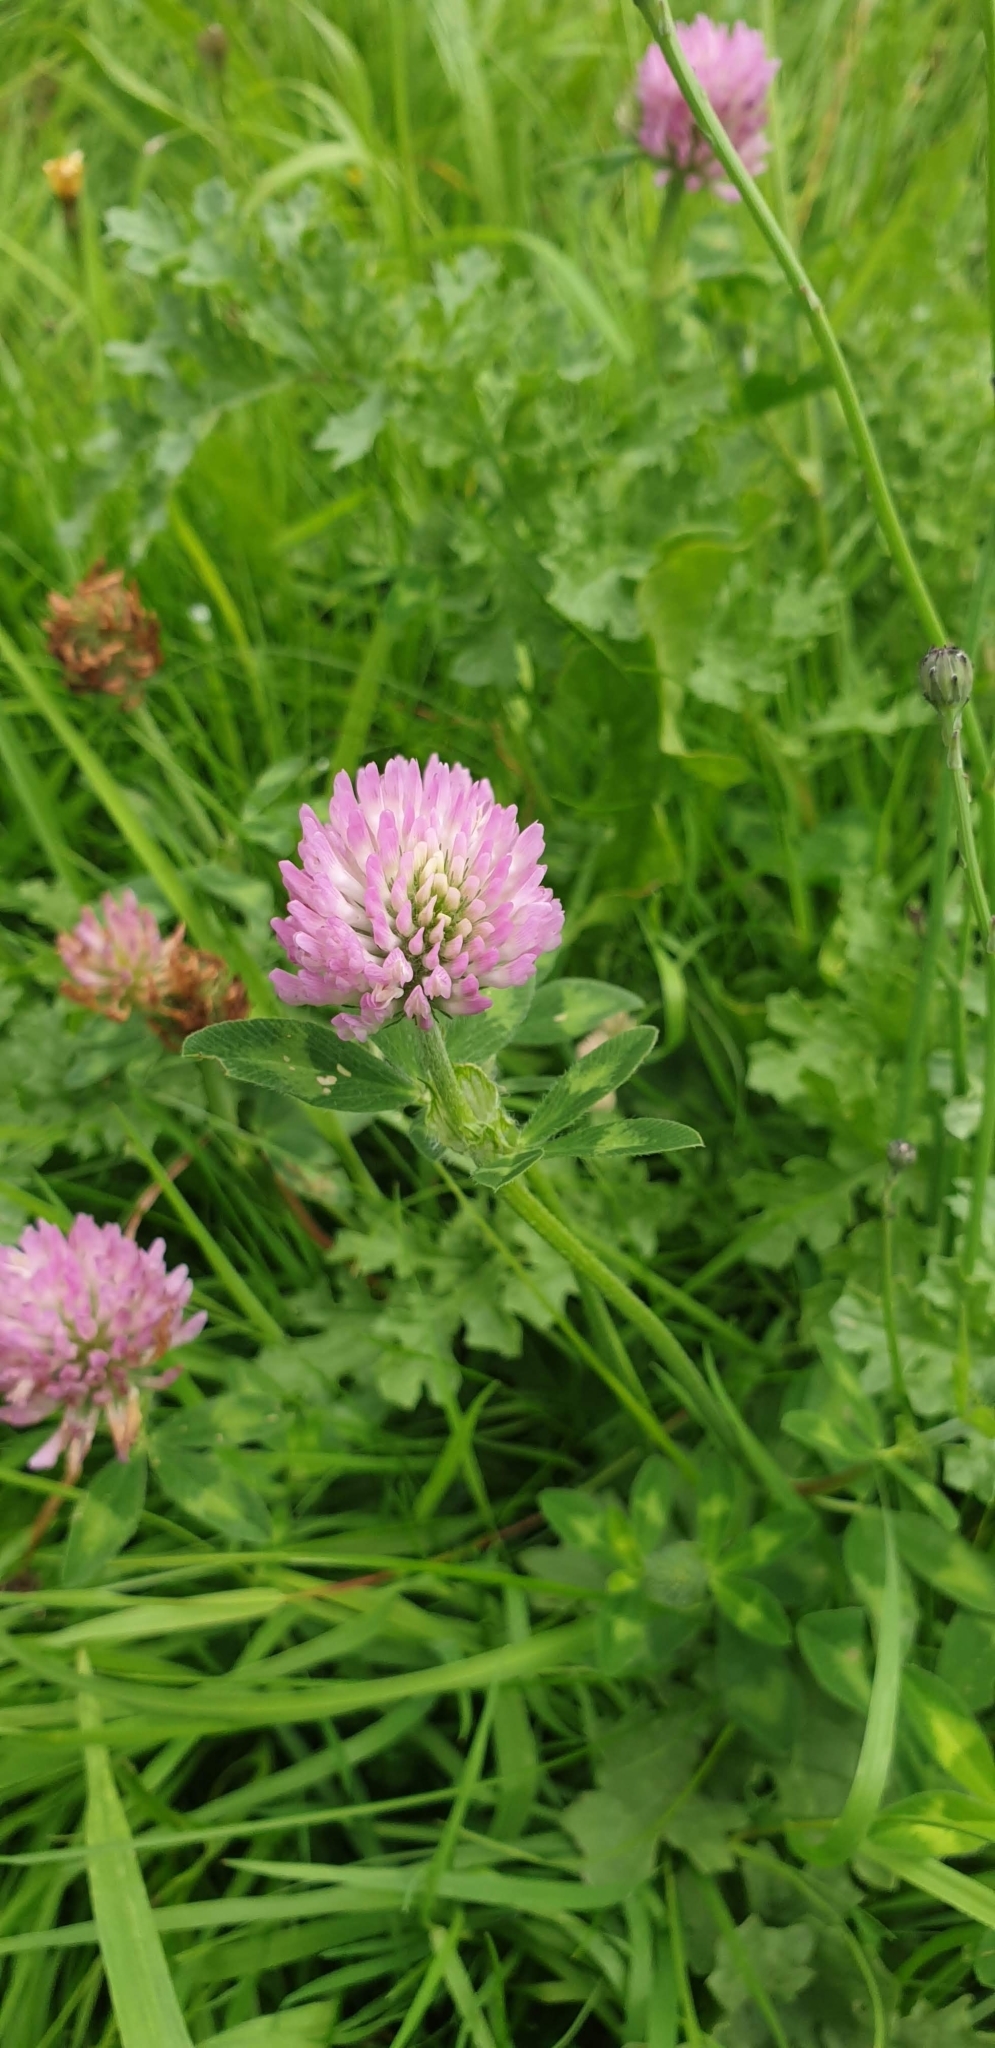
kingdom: Plantae
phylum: Tracheophyta
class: Magnoliopsida
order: Fabales
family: Fabaceae
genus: Trifolium
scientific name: Trifolium pratense
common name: Red clover
